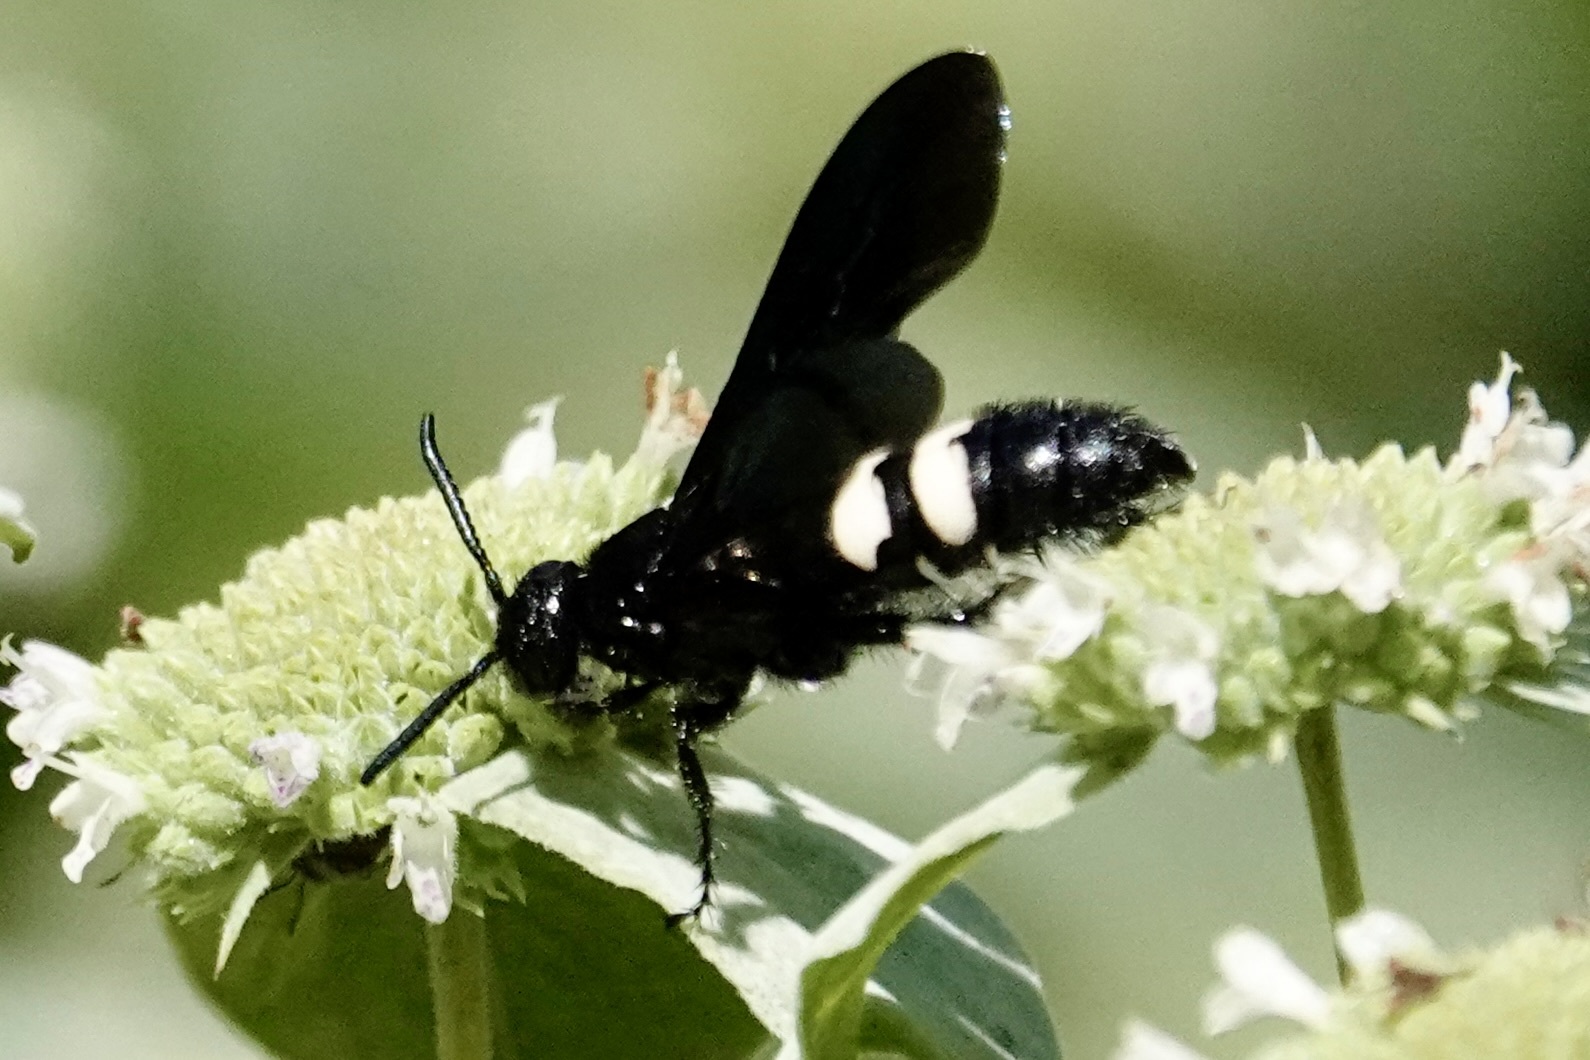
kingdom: Animalia
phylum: Arthropoda
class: Insecta
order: Hymenoptera
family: Scoliidae
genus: Scolia
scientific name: Scolia bicincta
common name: Double-banded scoliid wasp
